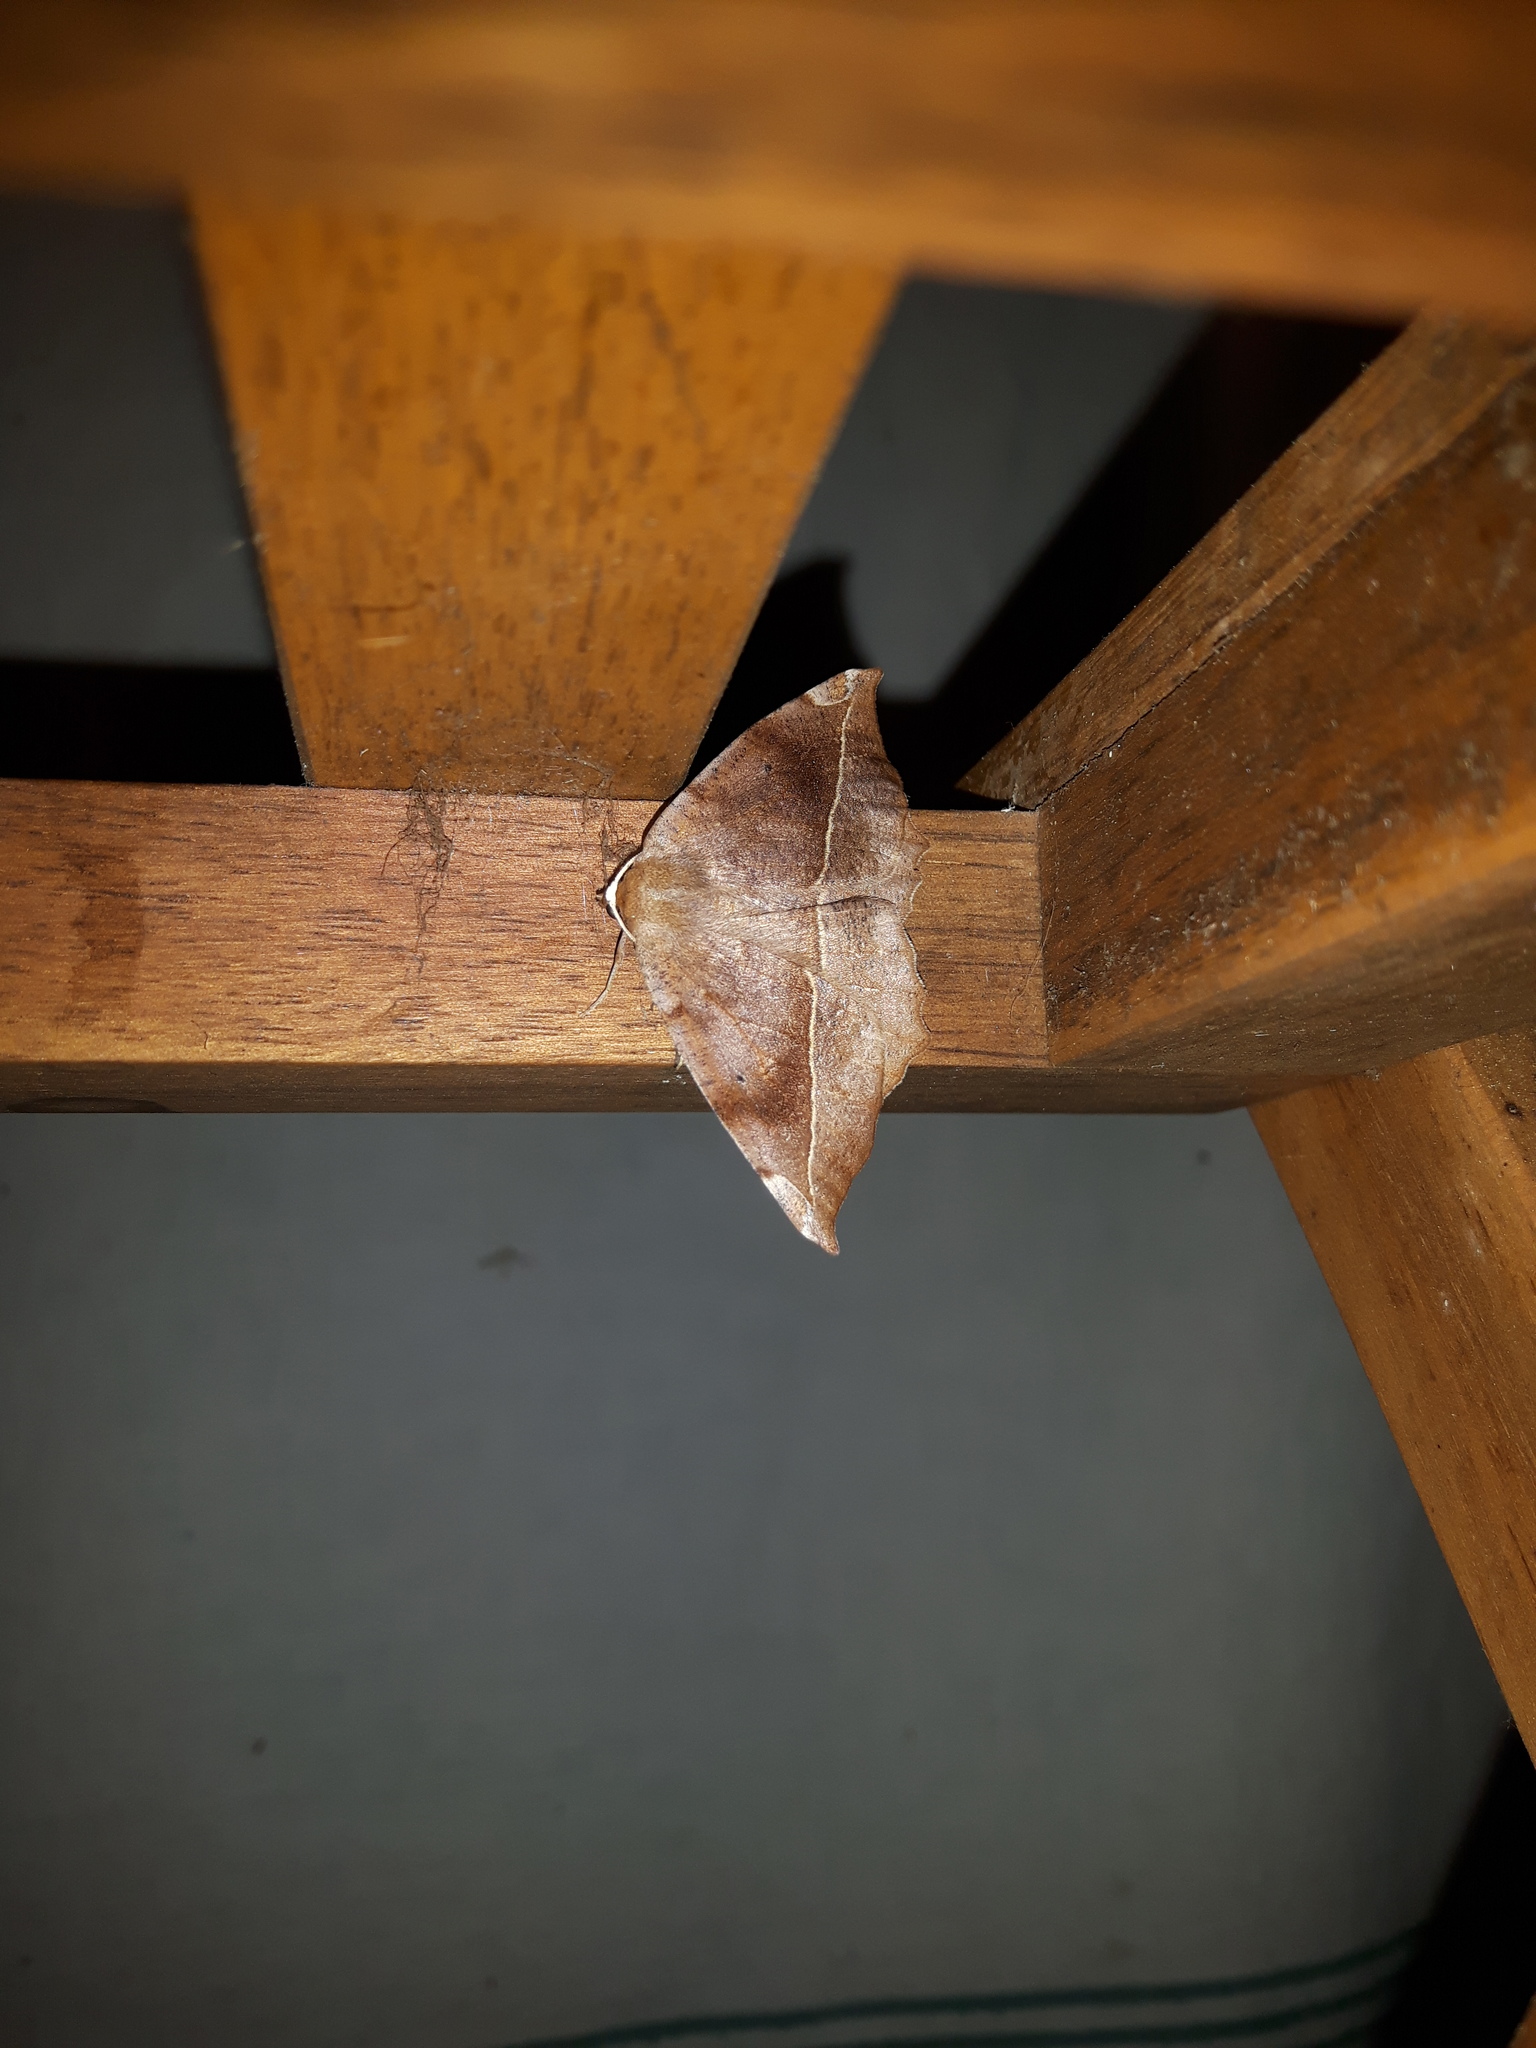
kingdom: Animalia
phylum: Arthropoda
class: Insecta
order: Lepidoptera
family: Geometridae
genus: Eutrapela
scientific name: Eutrapela clemataria
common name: Curved-toothed geometer
